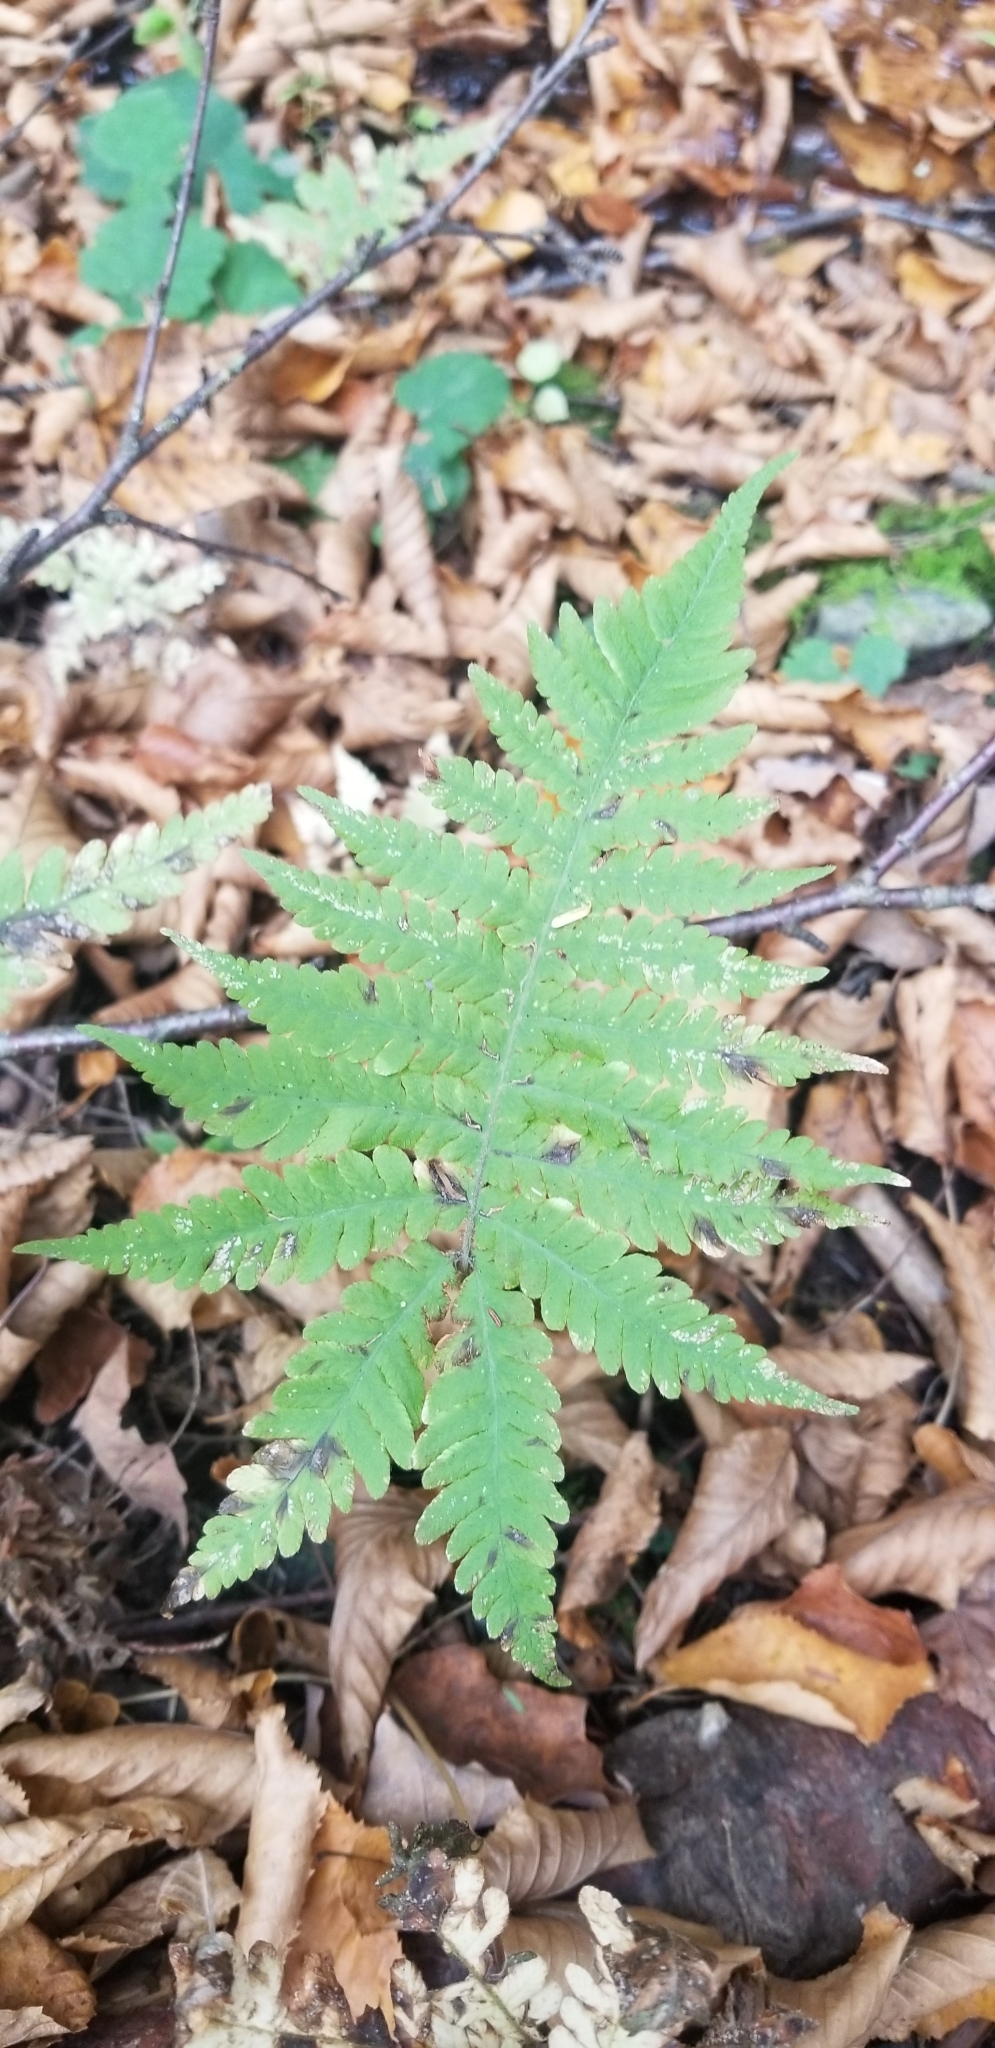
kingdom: Plantae
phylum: Tracheophyta
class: Polypodiopsida
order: Polypodiales
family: Thelypteridaceae
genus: Phegopteris
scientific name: Phegopteris connectilis
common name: Beech fern
